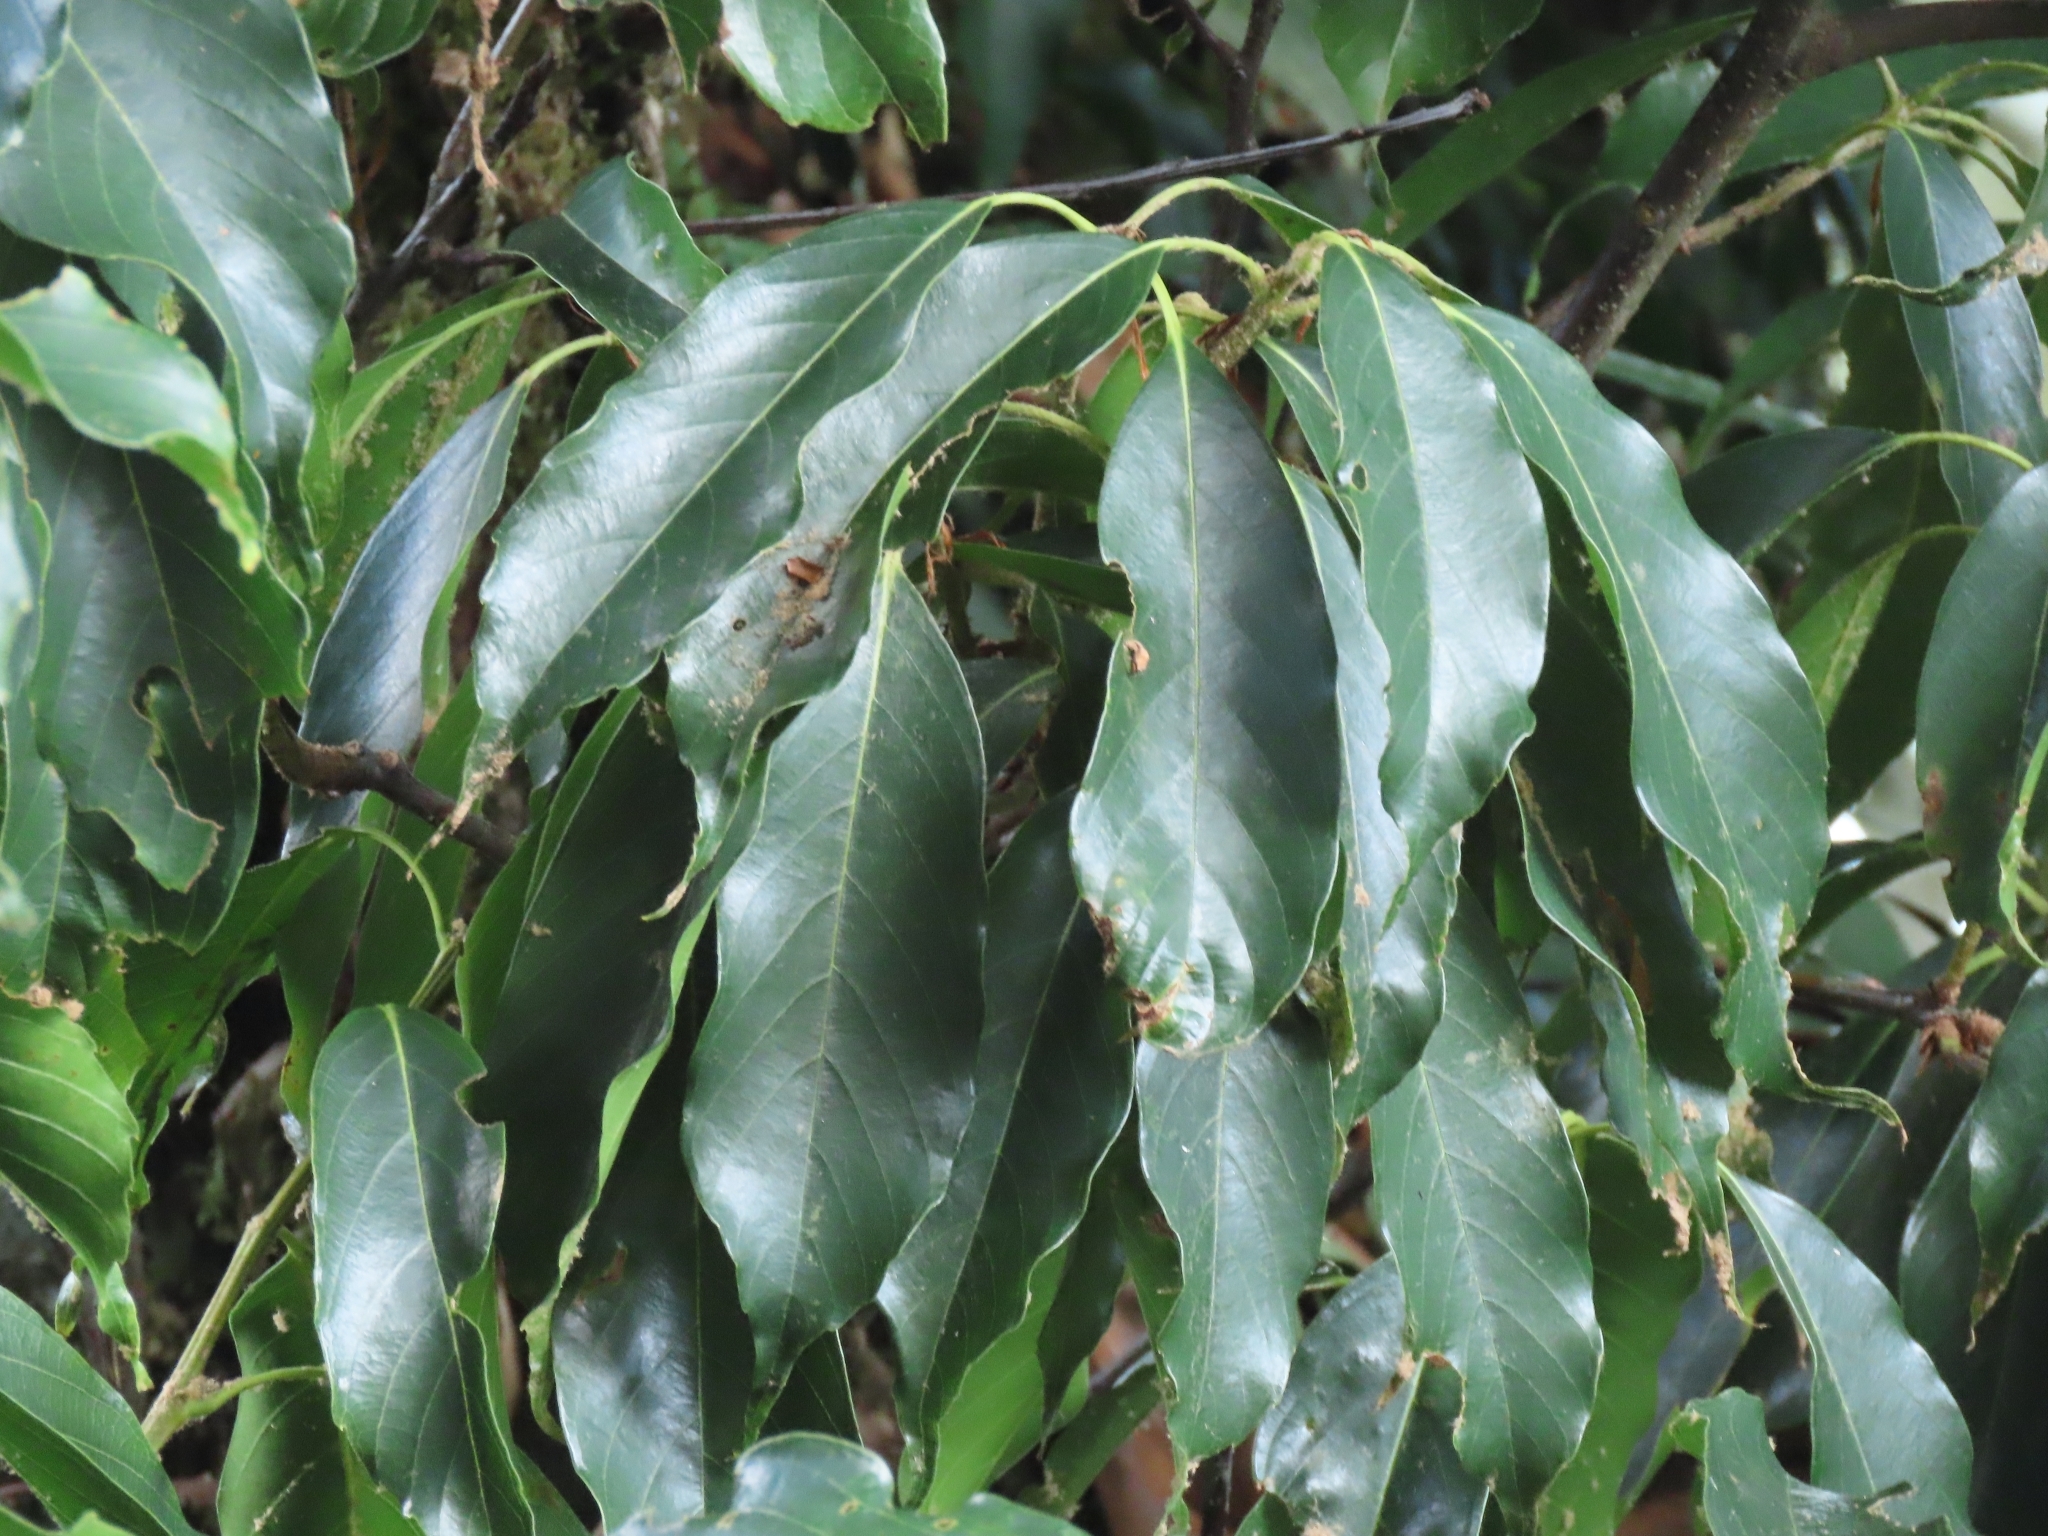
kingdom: Plantae
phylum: Tracheophyta
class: Magnoliopsida
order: Fagales
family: Fagaceae
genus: Quercus
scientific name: Quercus glauca
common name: Ring-cup oak
